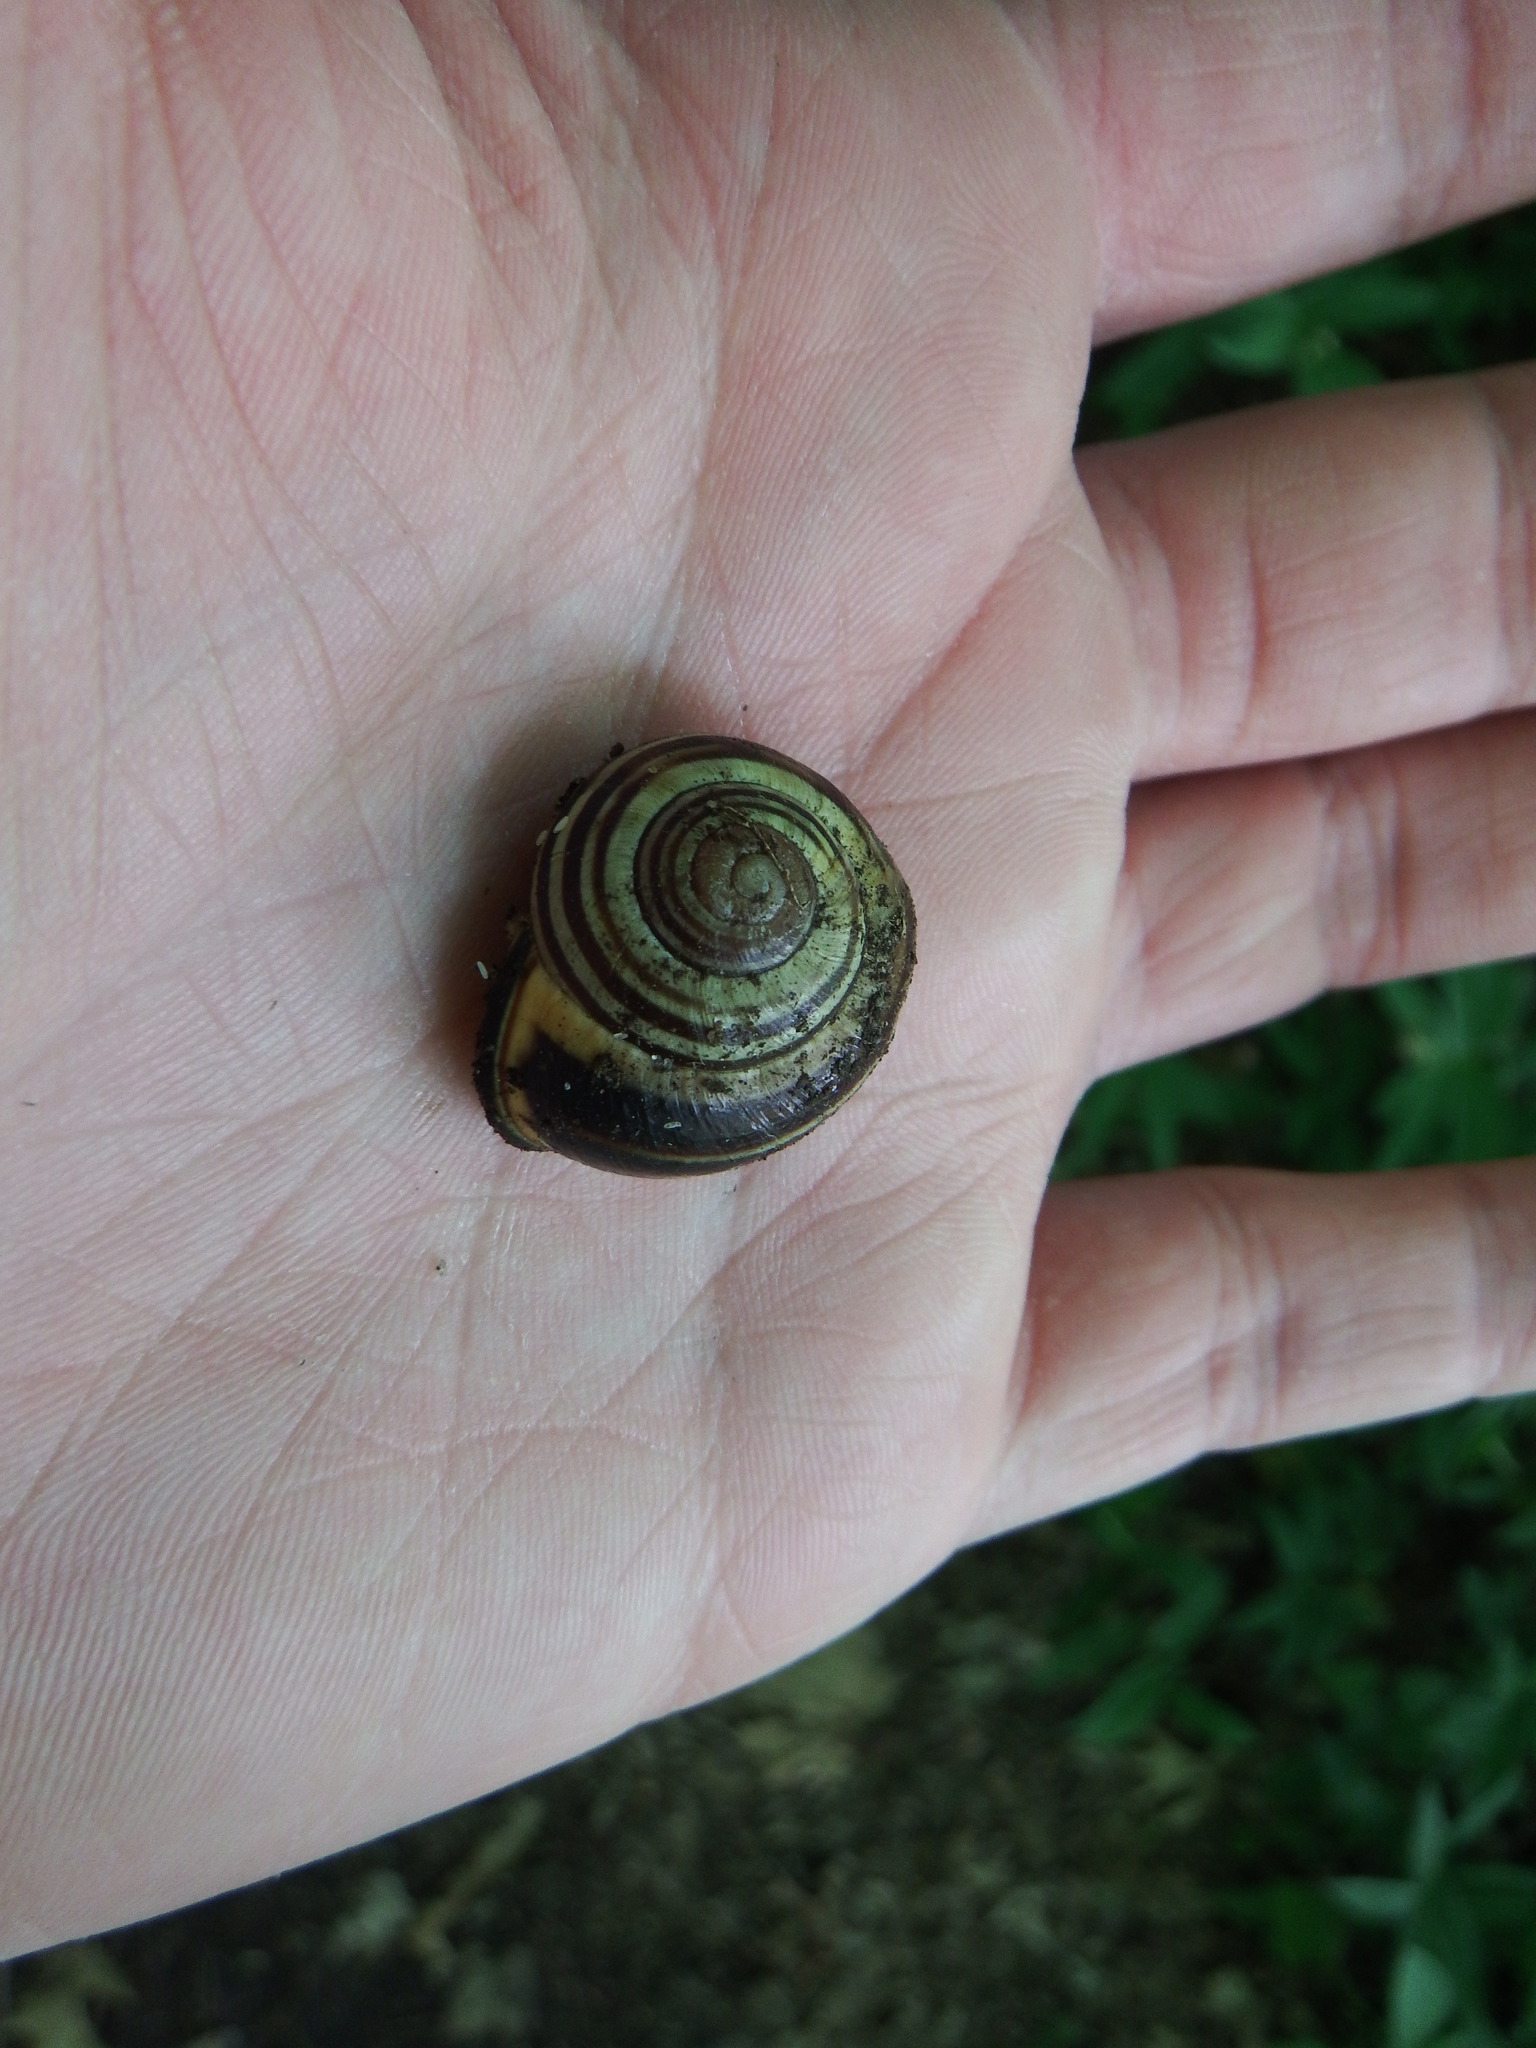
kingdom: Animalia
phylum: Mollusca
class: Gastropoda
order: Stylommatophora
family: Helicidae
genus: Cepaea
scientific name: Cepaea nemoralis
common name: Grovesnail
